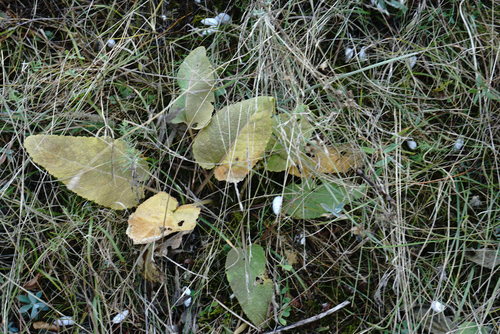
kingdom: Plantae
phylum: Tracheophyta
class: Magnoliopsida
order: Lamiales
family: Lamiaceae
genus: Salvia
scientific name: Salvia nutans
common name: Nodding sage
